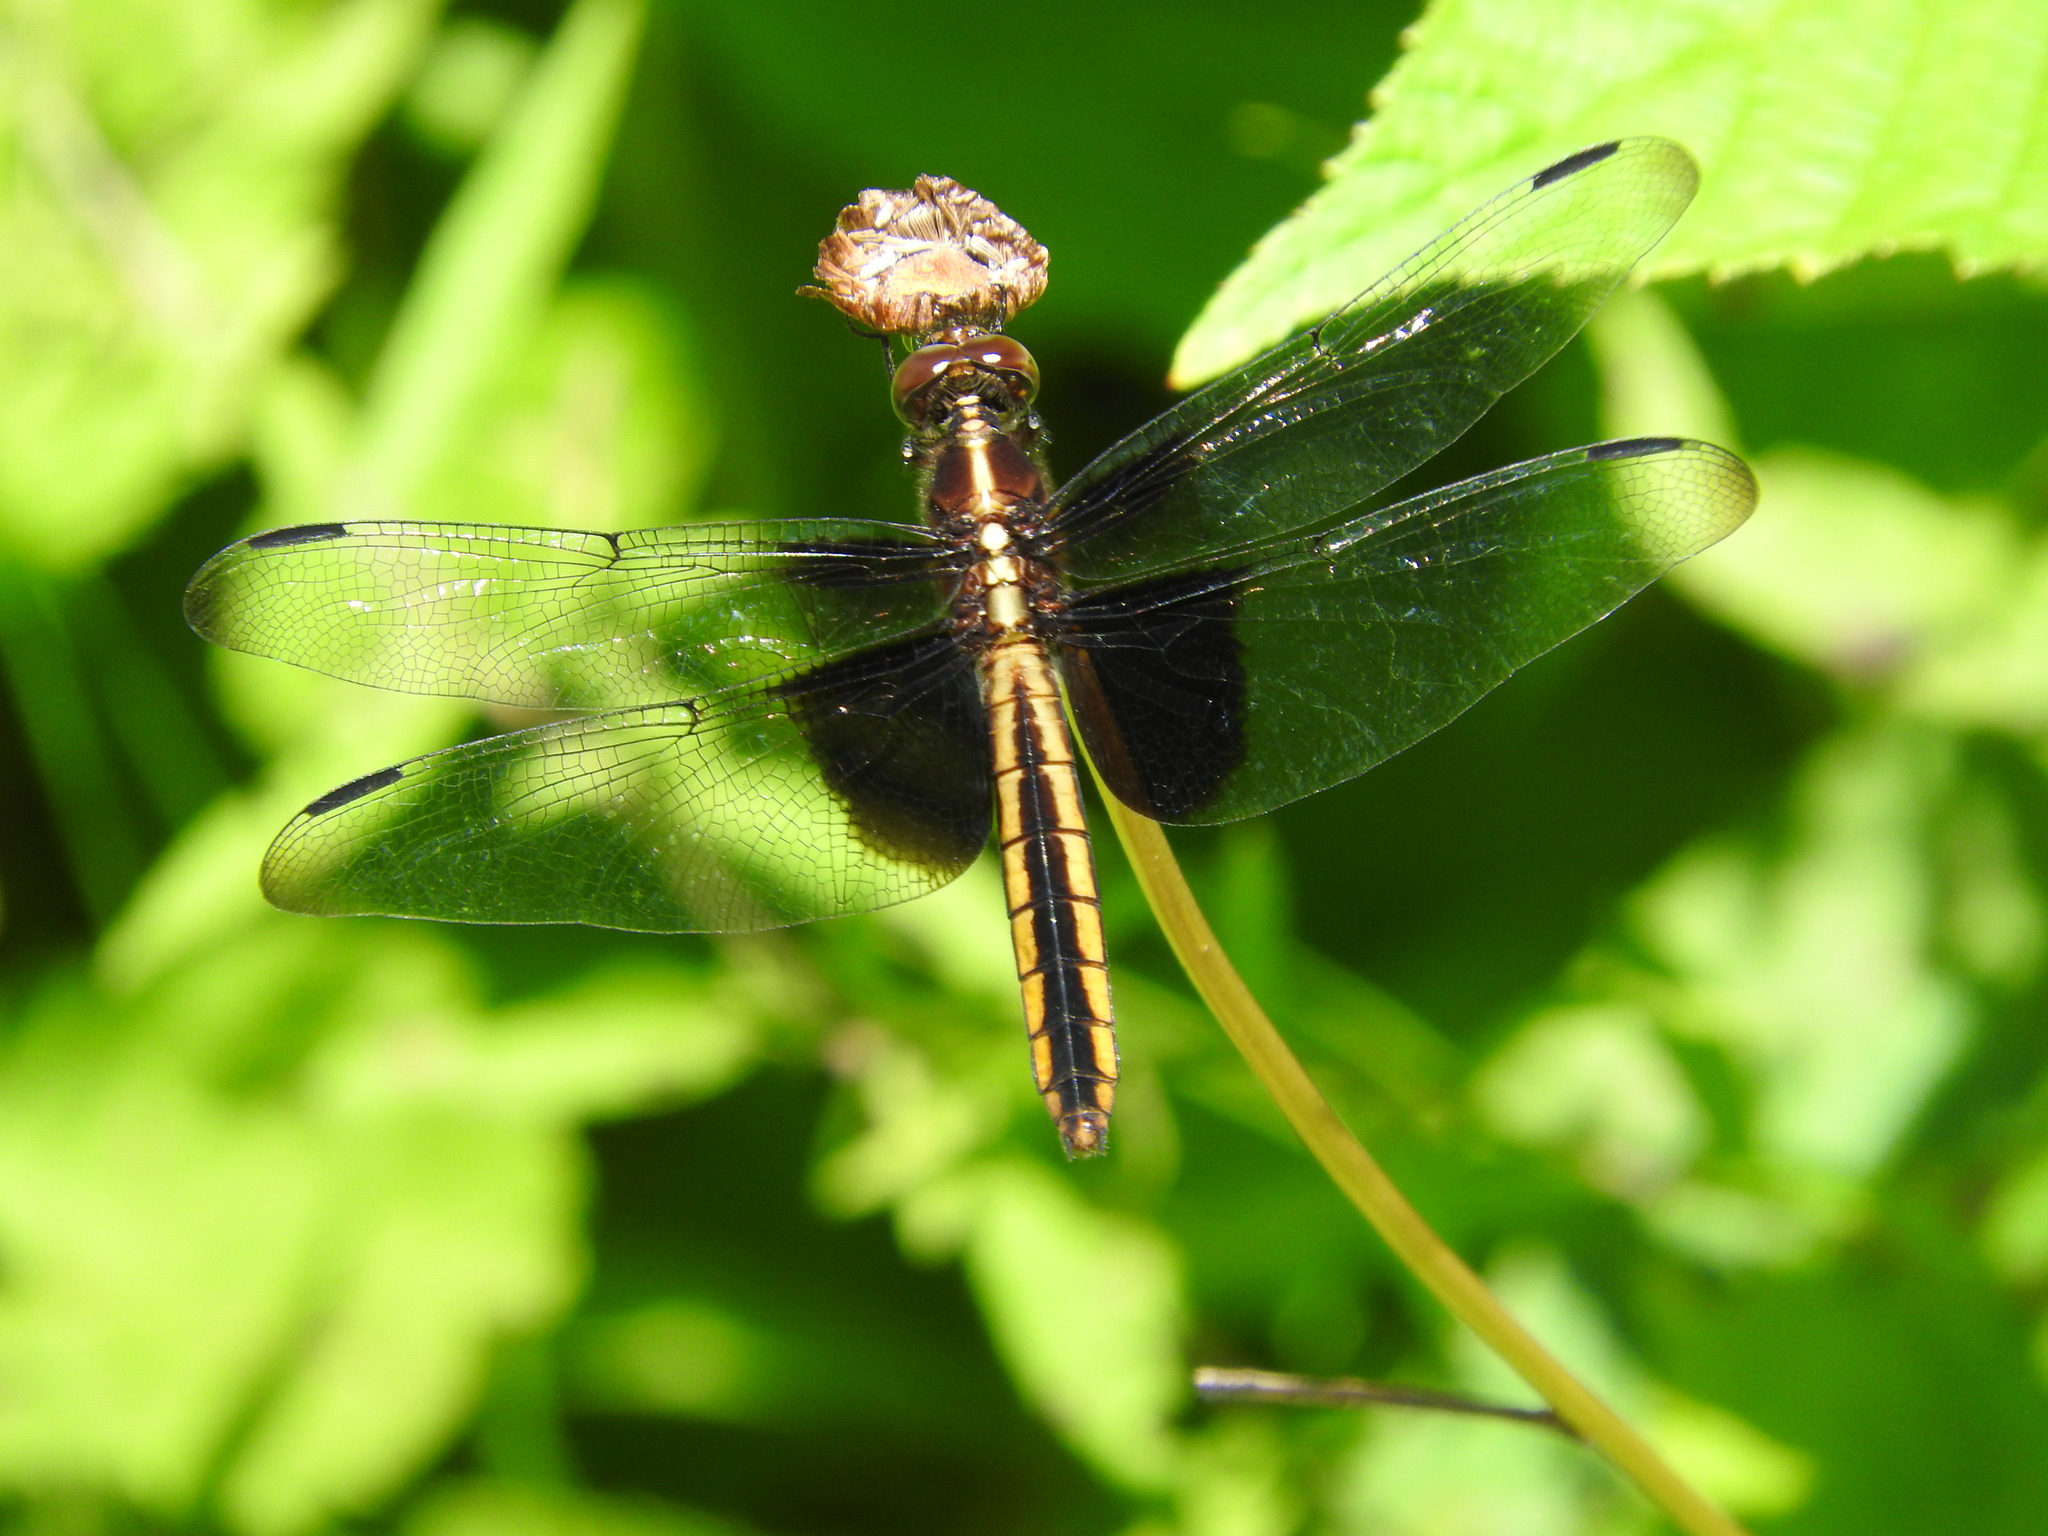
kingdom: Animalia
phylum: Arthropoda
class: Insecta
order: Odonata
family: Libellulidae
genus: Libellula
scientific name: Libellula luctuosa
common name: Widow skimmer
